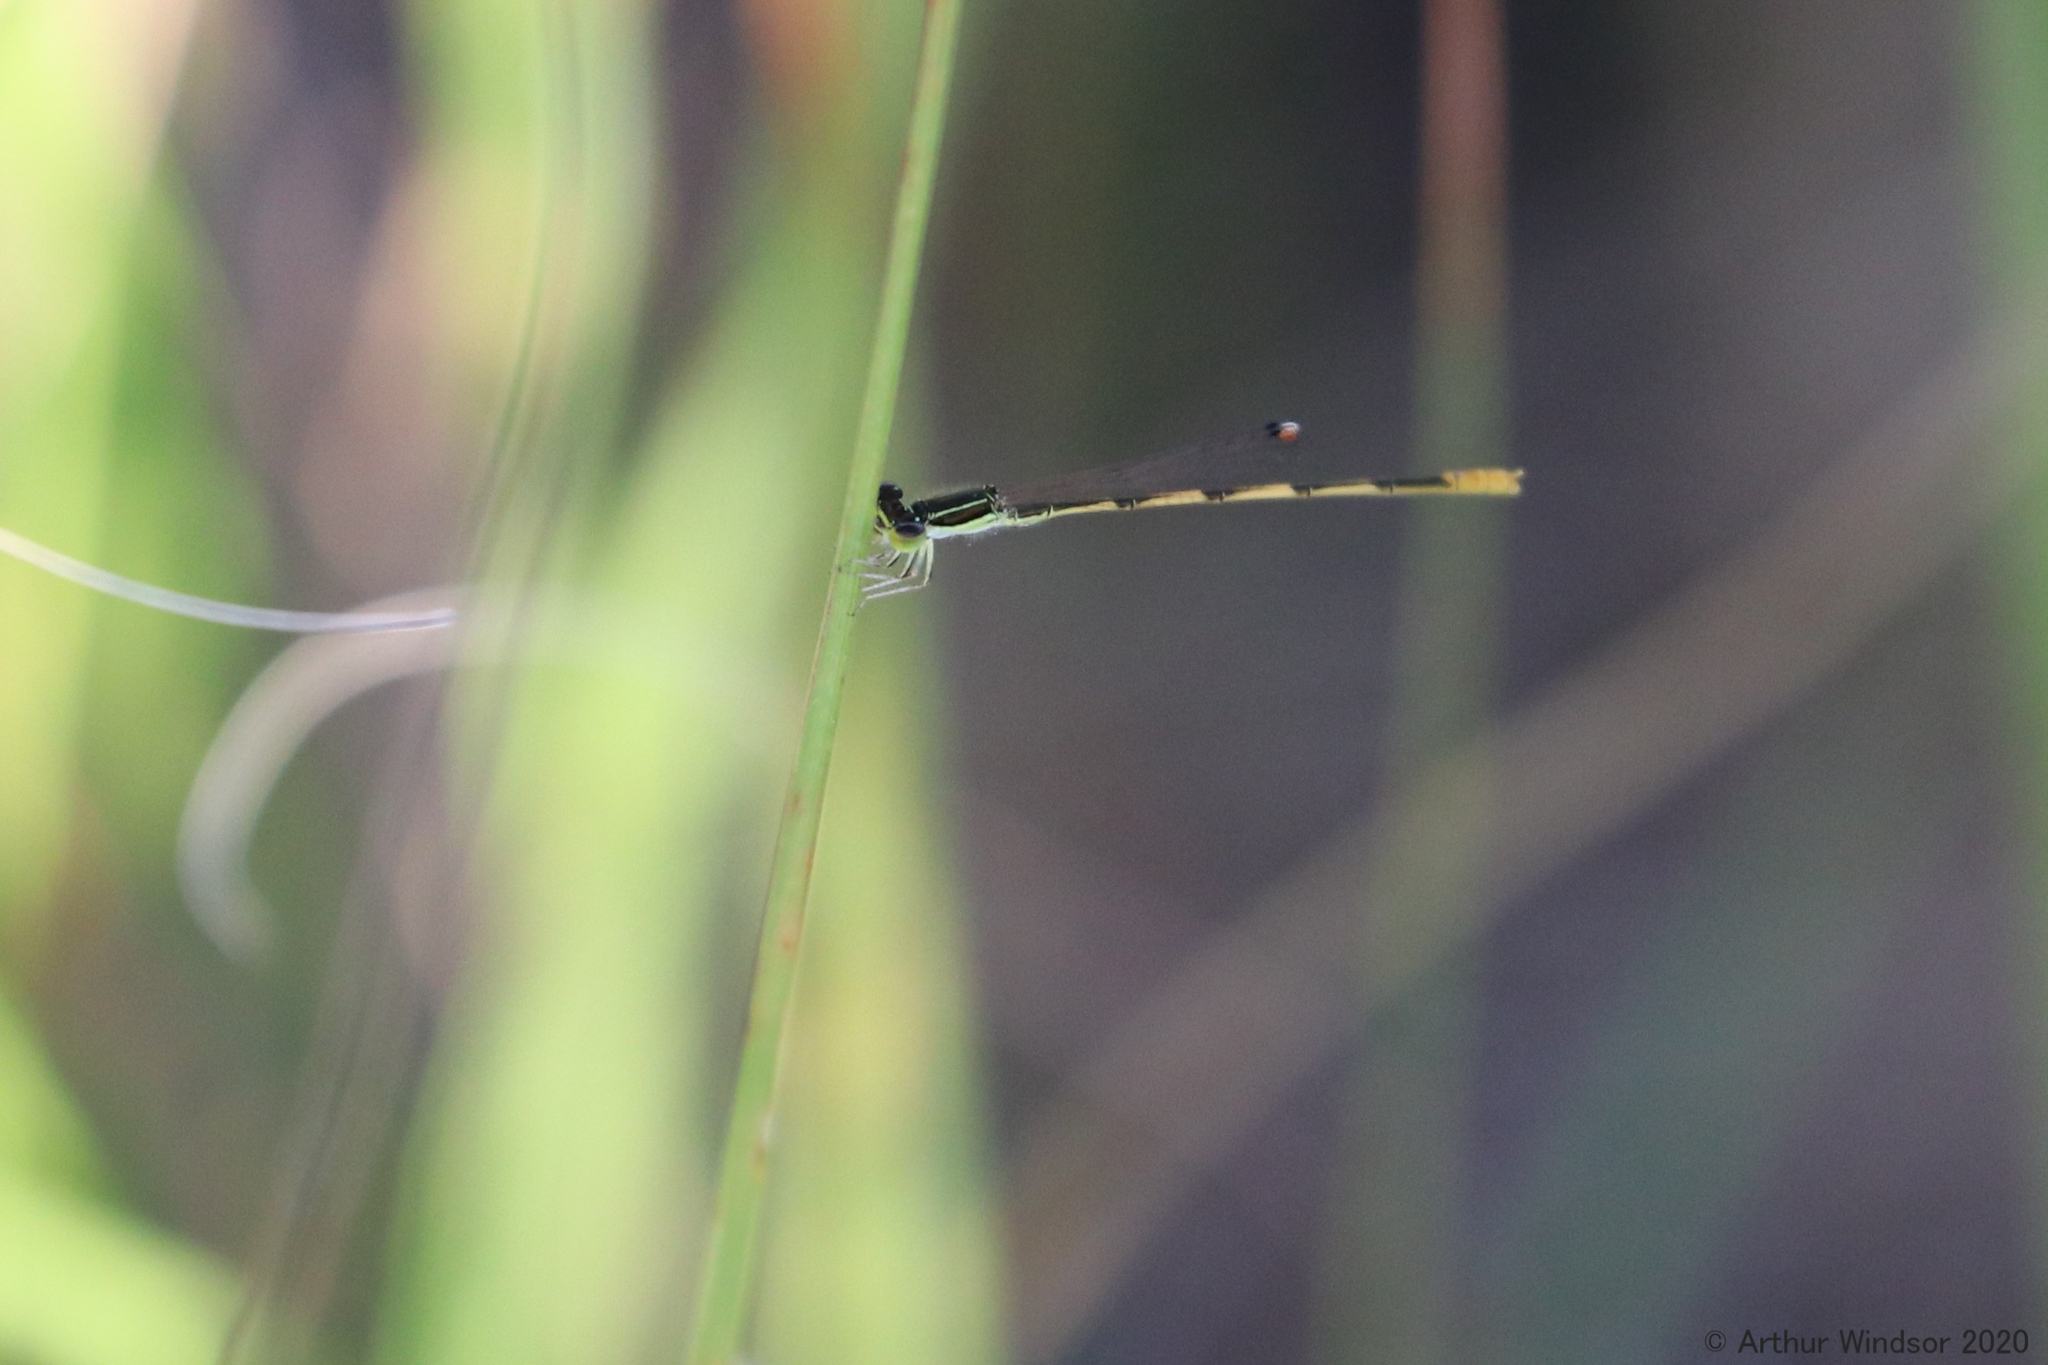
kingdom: Animalia
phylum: Arthropoda
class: Insecta
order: Odonata
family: Coenagrionidae
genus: Ischnura
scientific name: Ischnura hastata
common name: Citrine forktail
